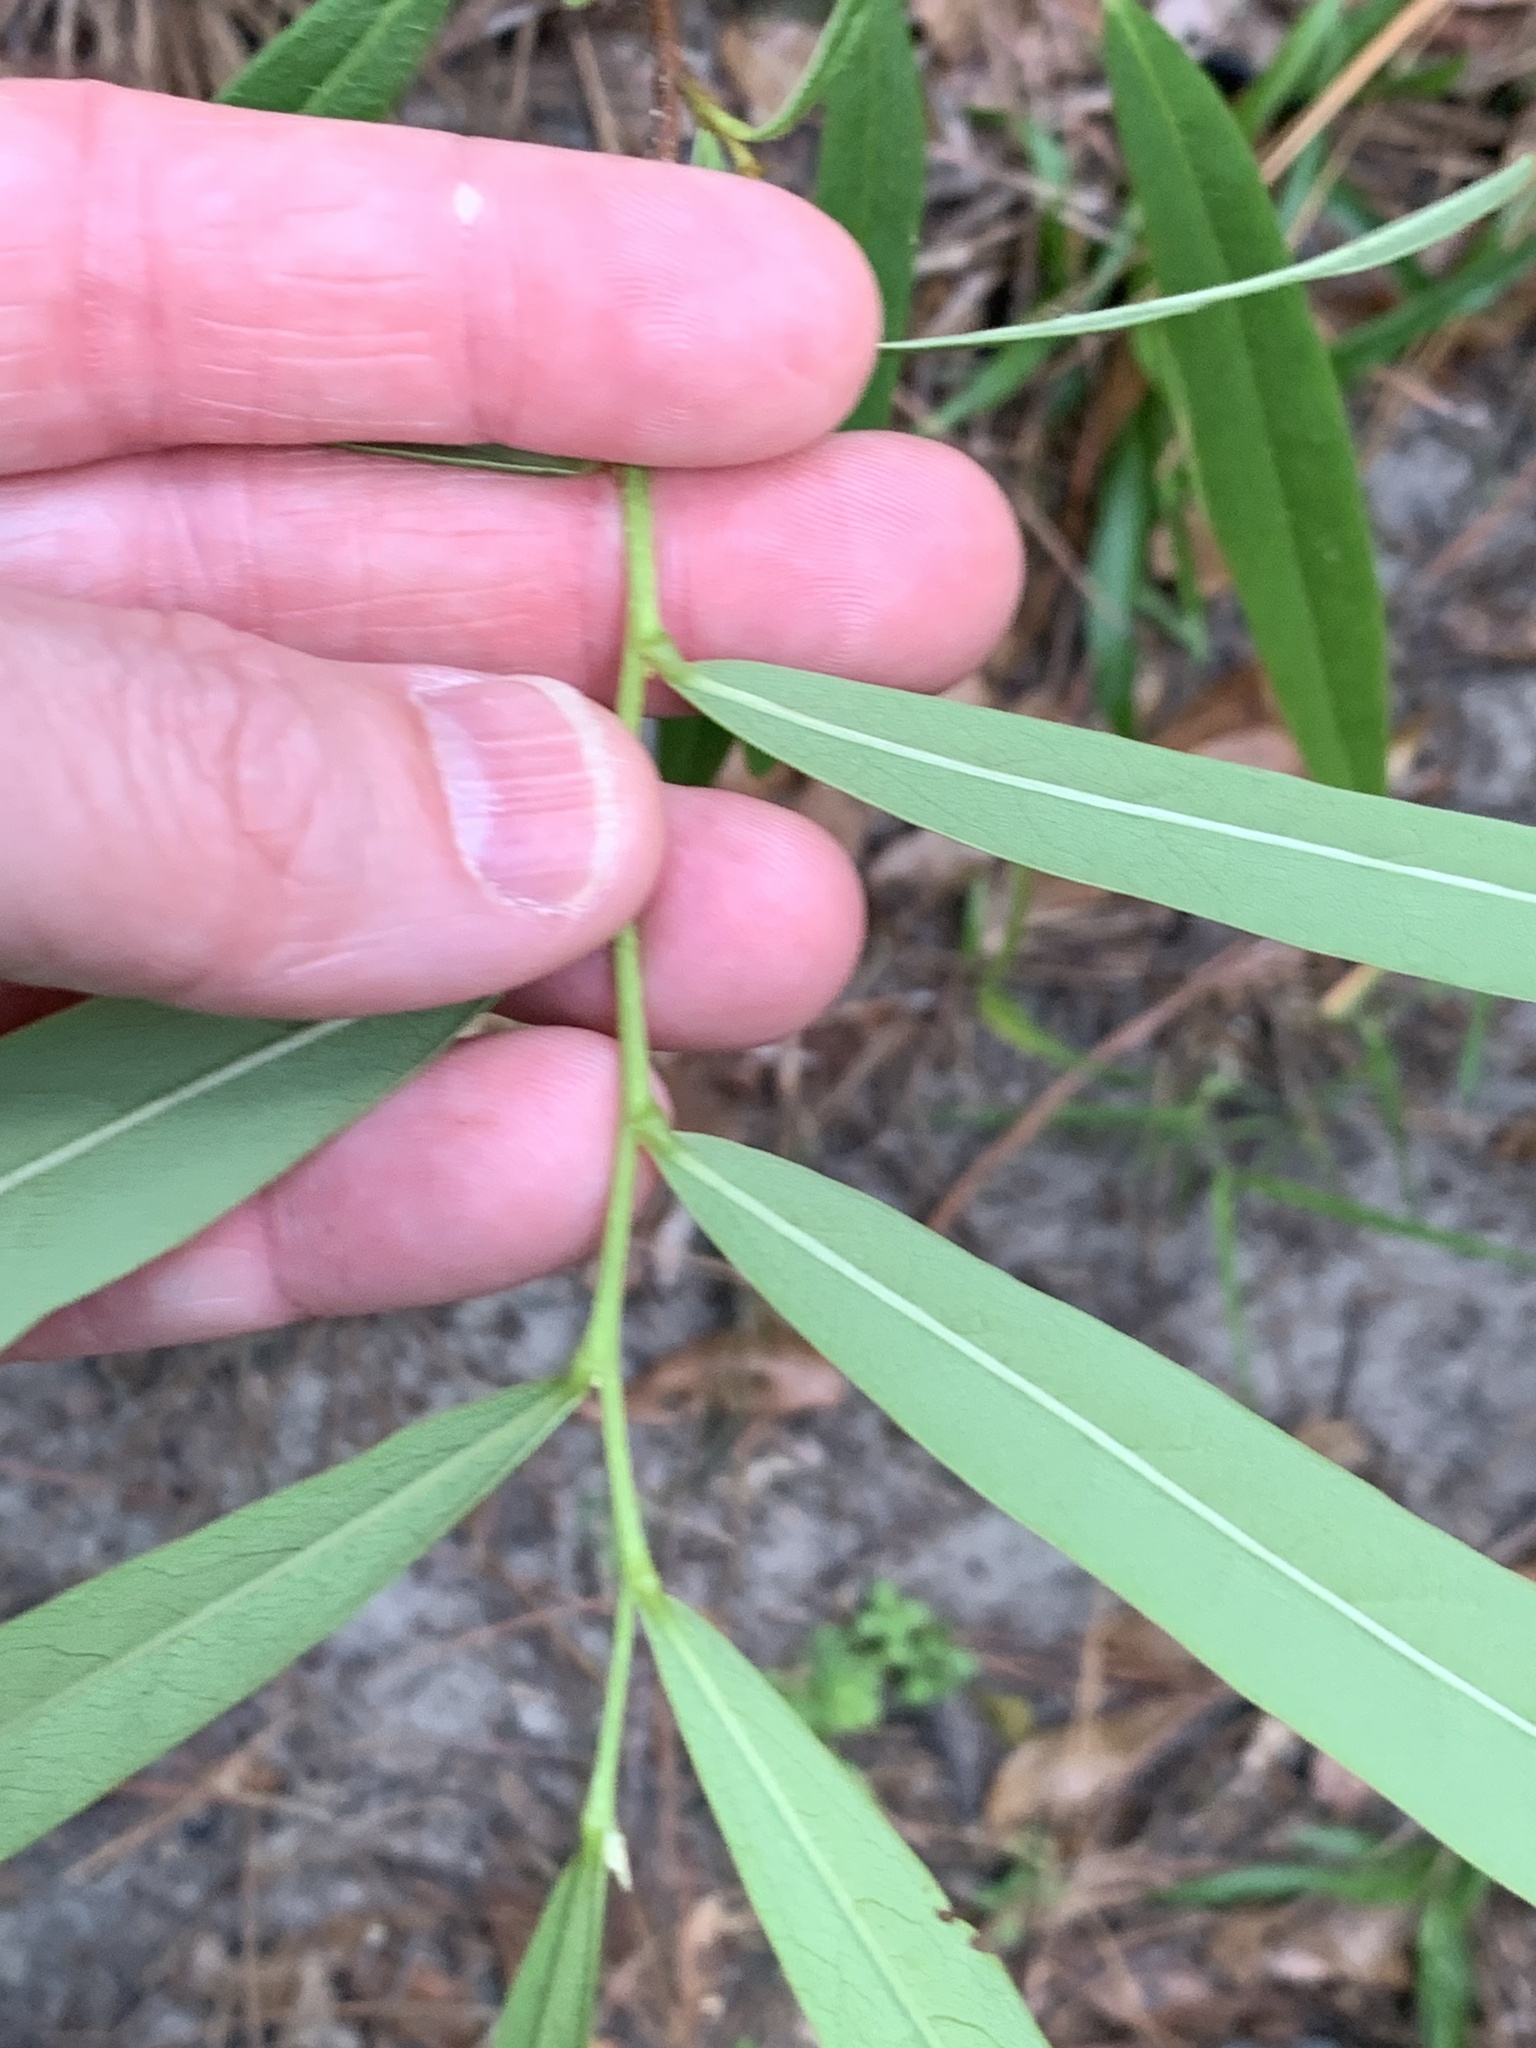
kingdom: Plantae
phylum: Tracheophyta
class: Magnoliopsida
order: Magnoliales
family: Annonaceae
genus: Asimina
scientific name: Asimina longifolia
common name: Polecatbush
